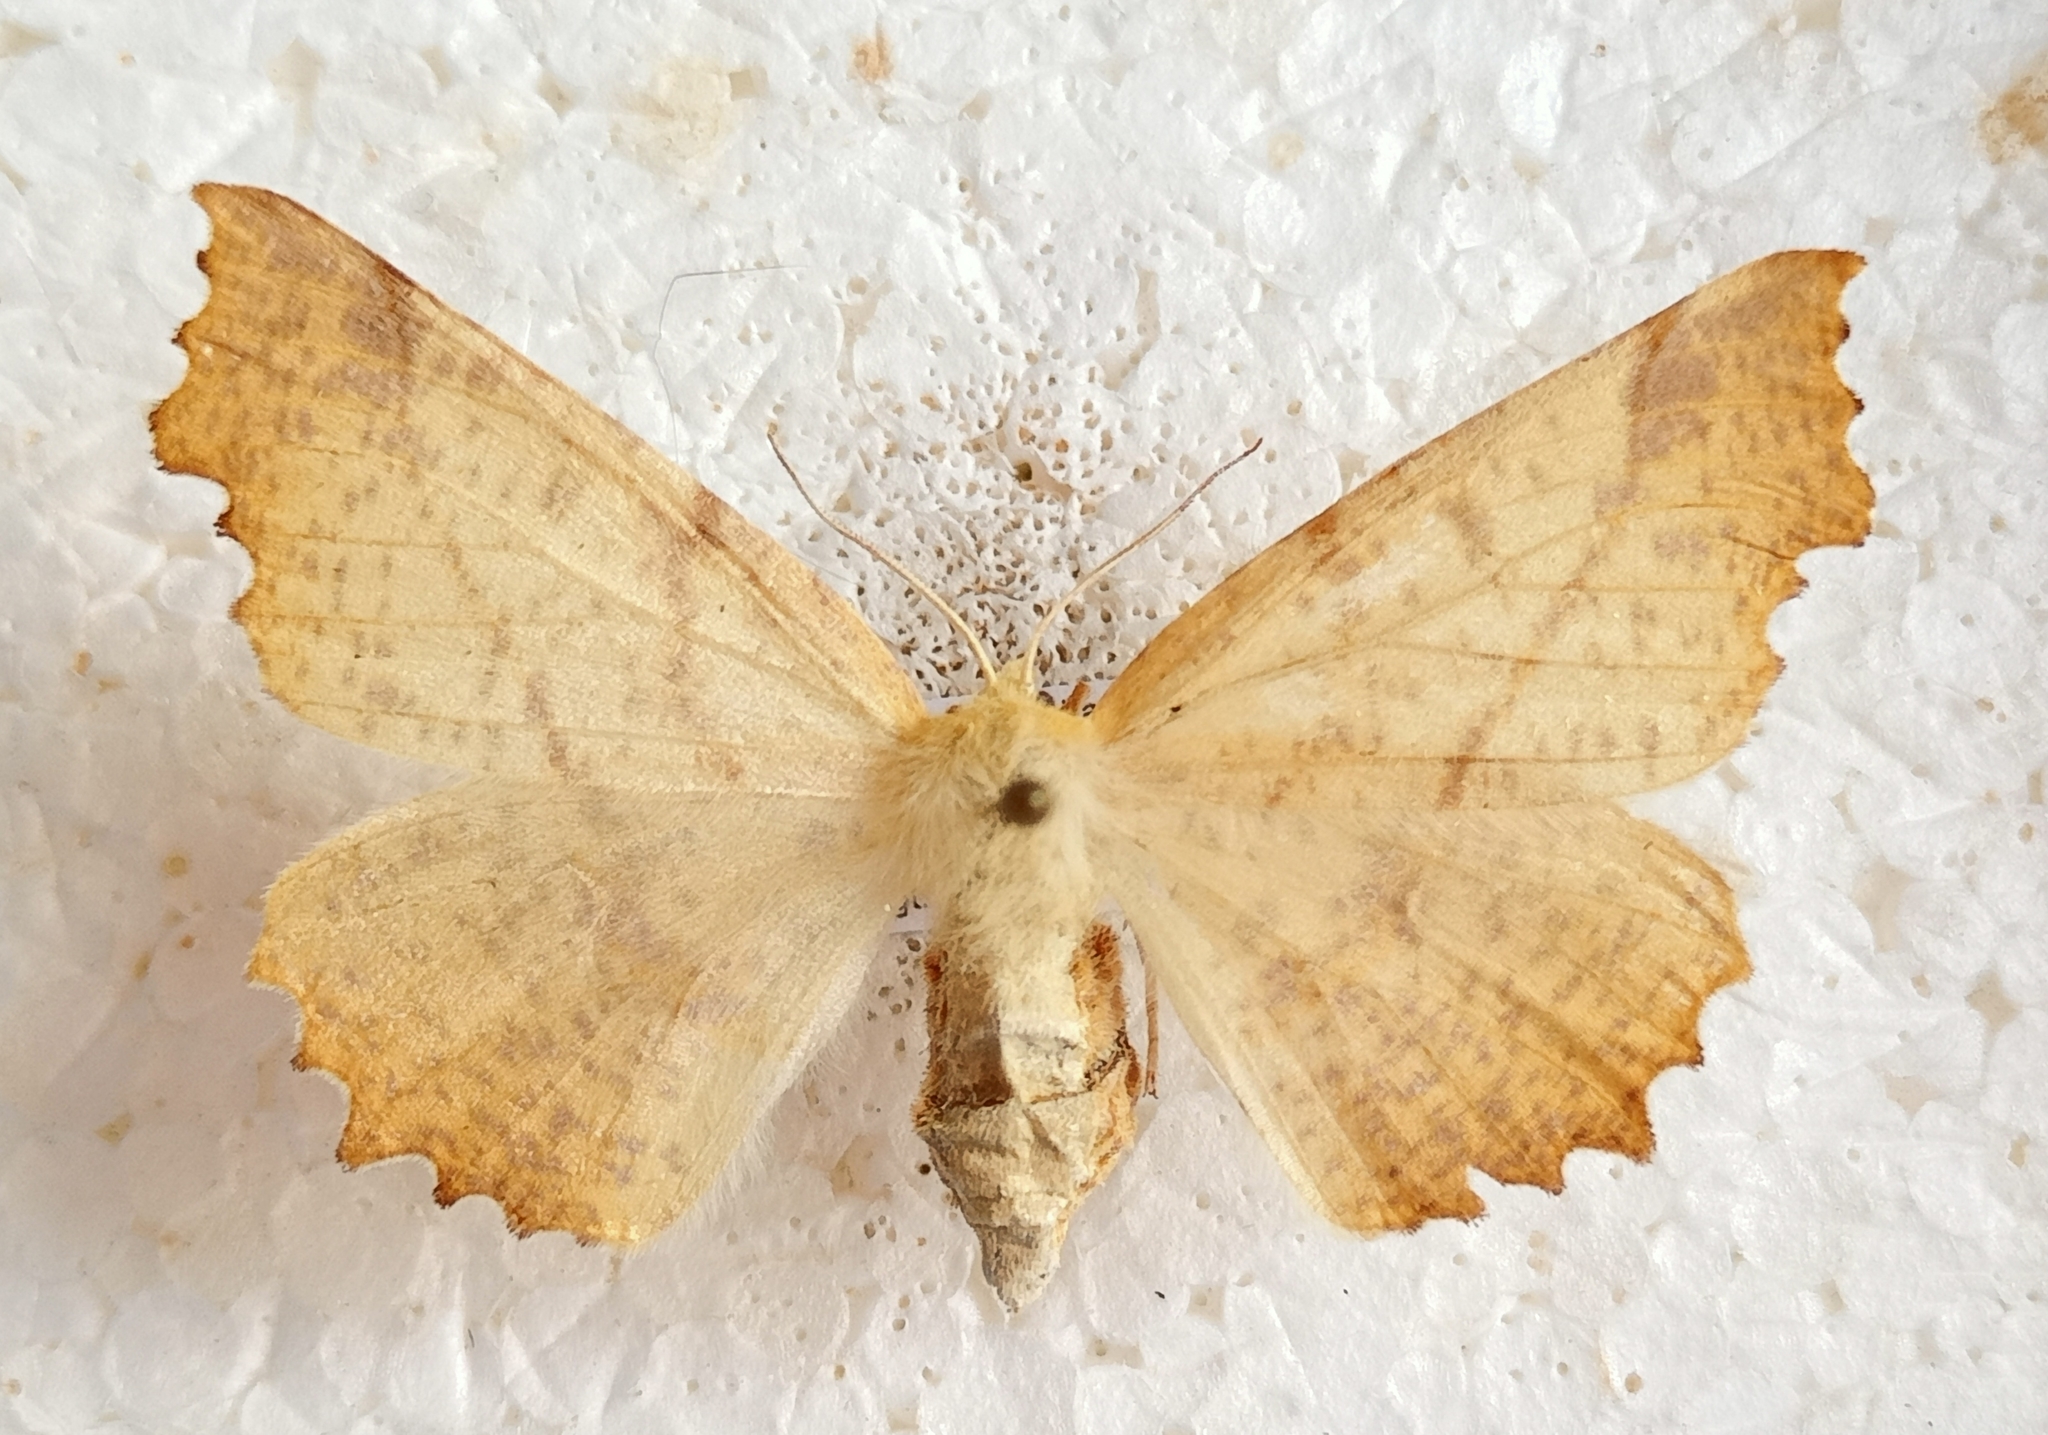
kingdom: Animalia
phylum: Arthropoda
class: Insecta
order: Lepidoptera
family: Geometridae
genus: Ennomos
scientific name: Ennomos autumnaria
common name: Large thorn
